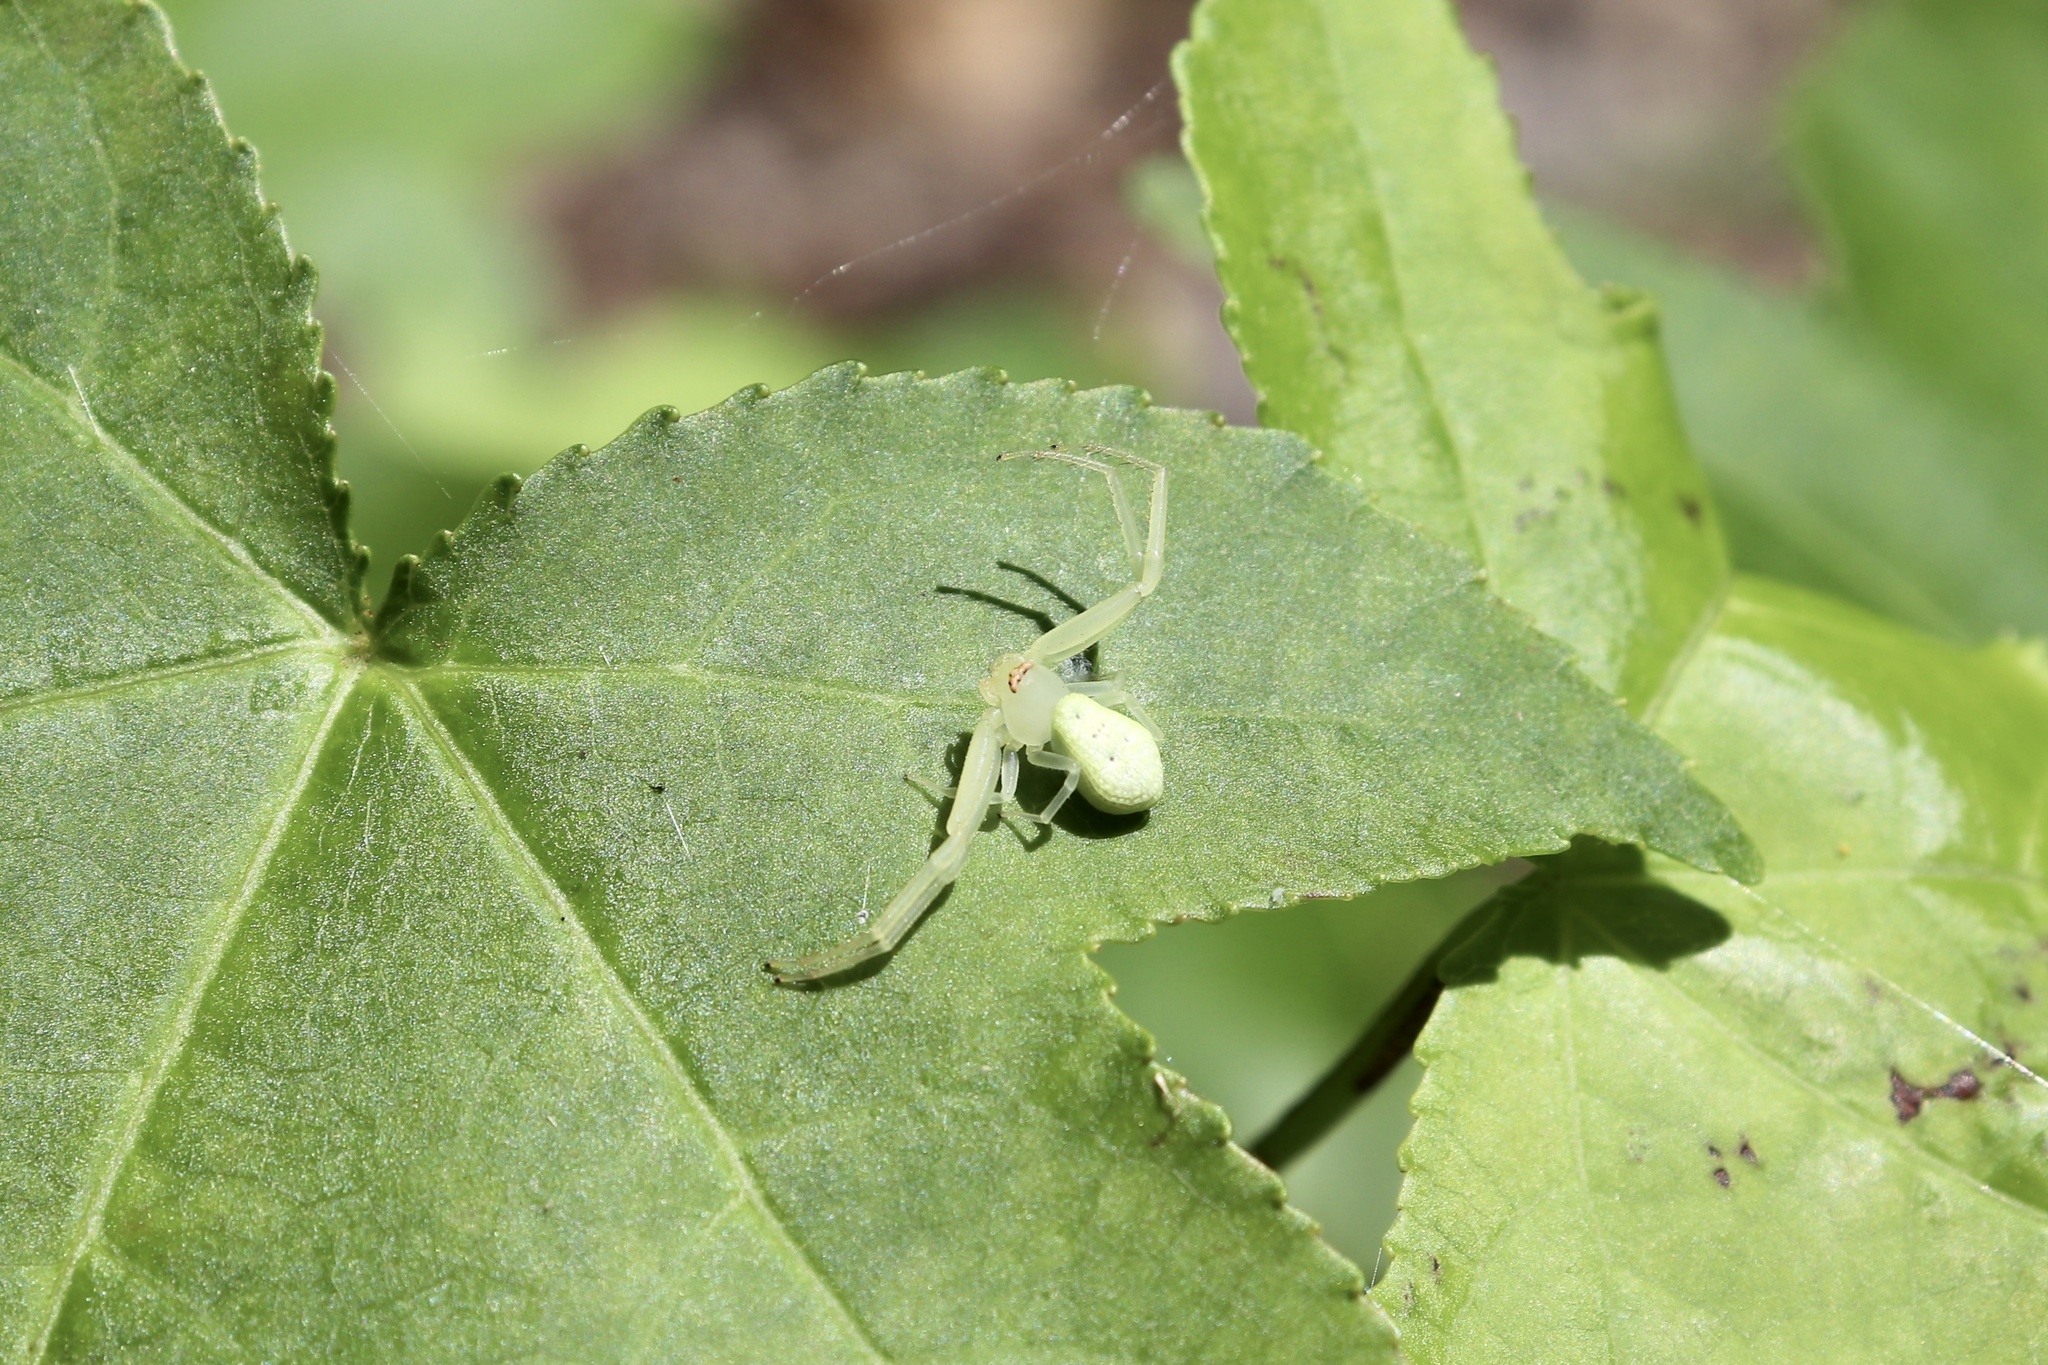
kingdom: Animalia
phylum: Arthropoda
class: Arachnida
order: Araneae
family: Thomisidae
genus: Misumessus
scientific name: Misumessus oblongus
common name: American green crab spider
